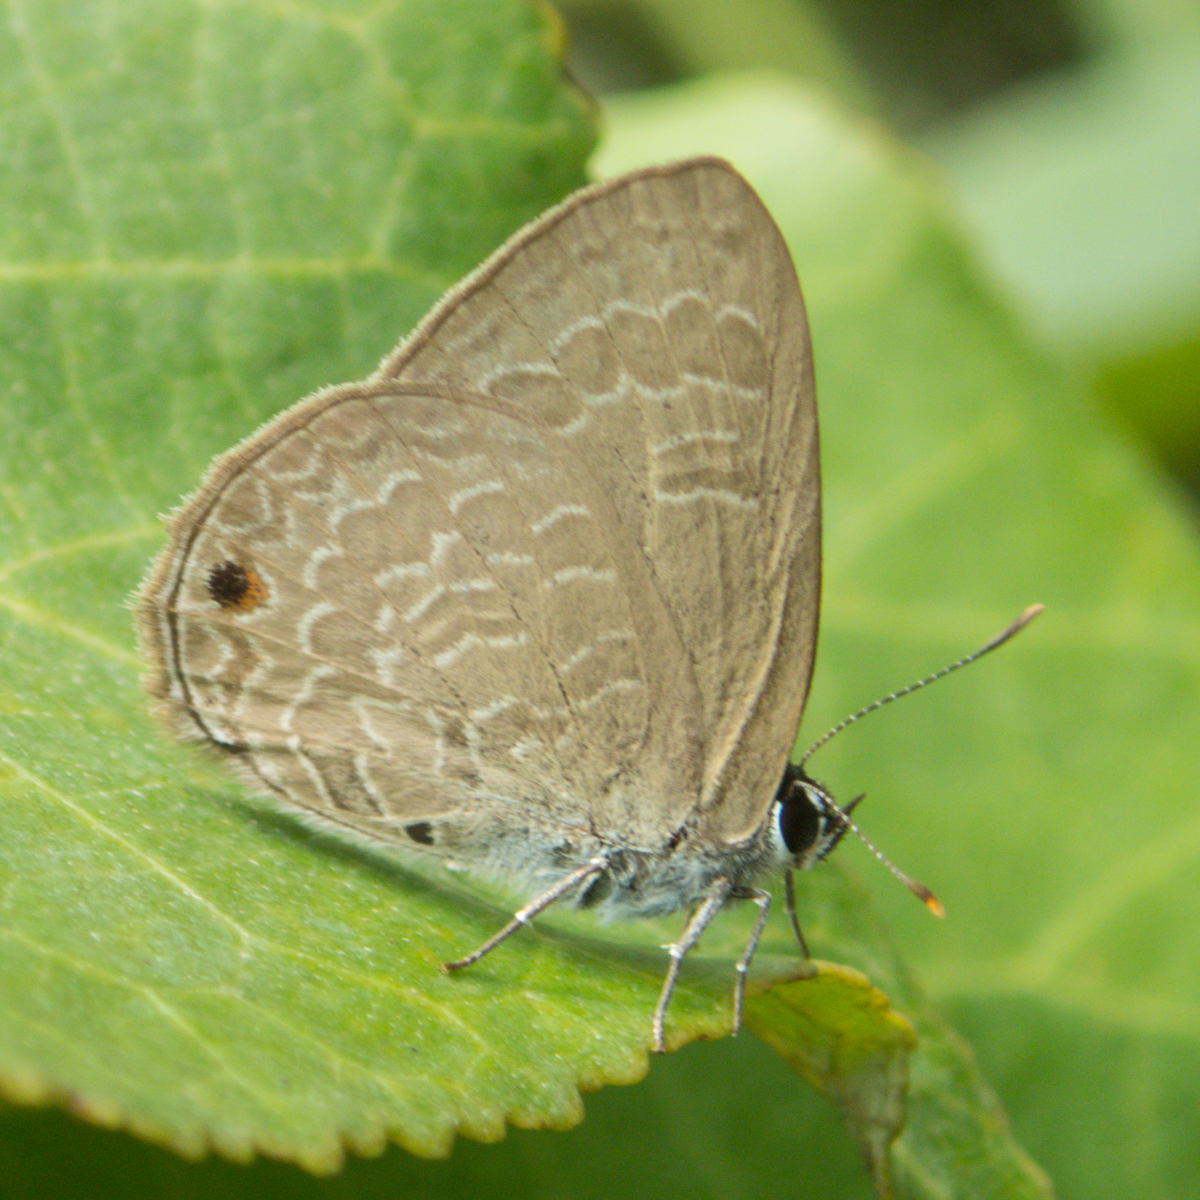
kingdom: Animalia
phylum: Arthropoda
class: Insecta
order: Lepidoptera
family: Lycaenidae
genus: Anthene
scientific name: Anthene emolus
